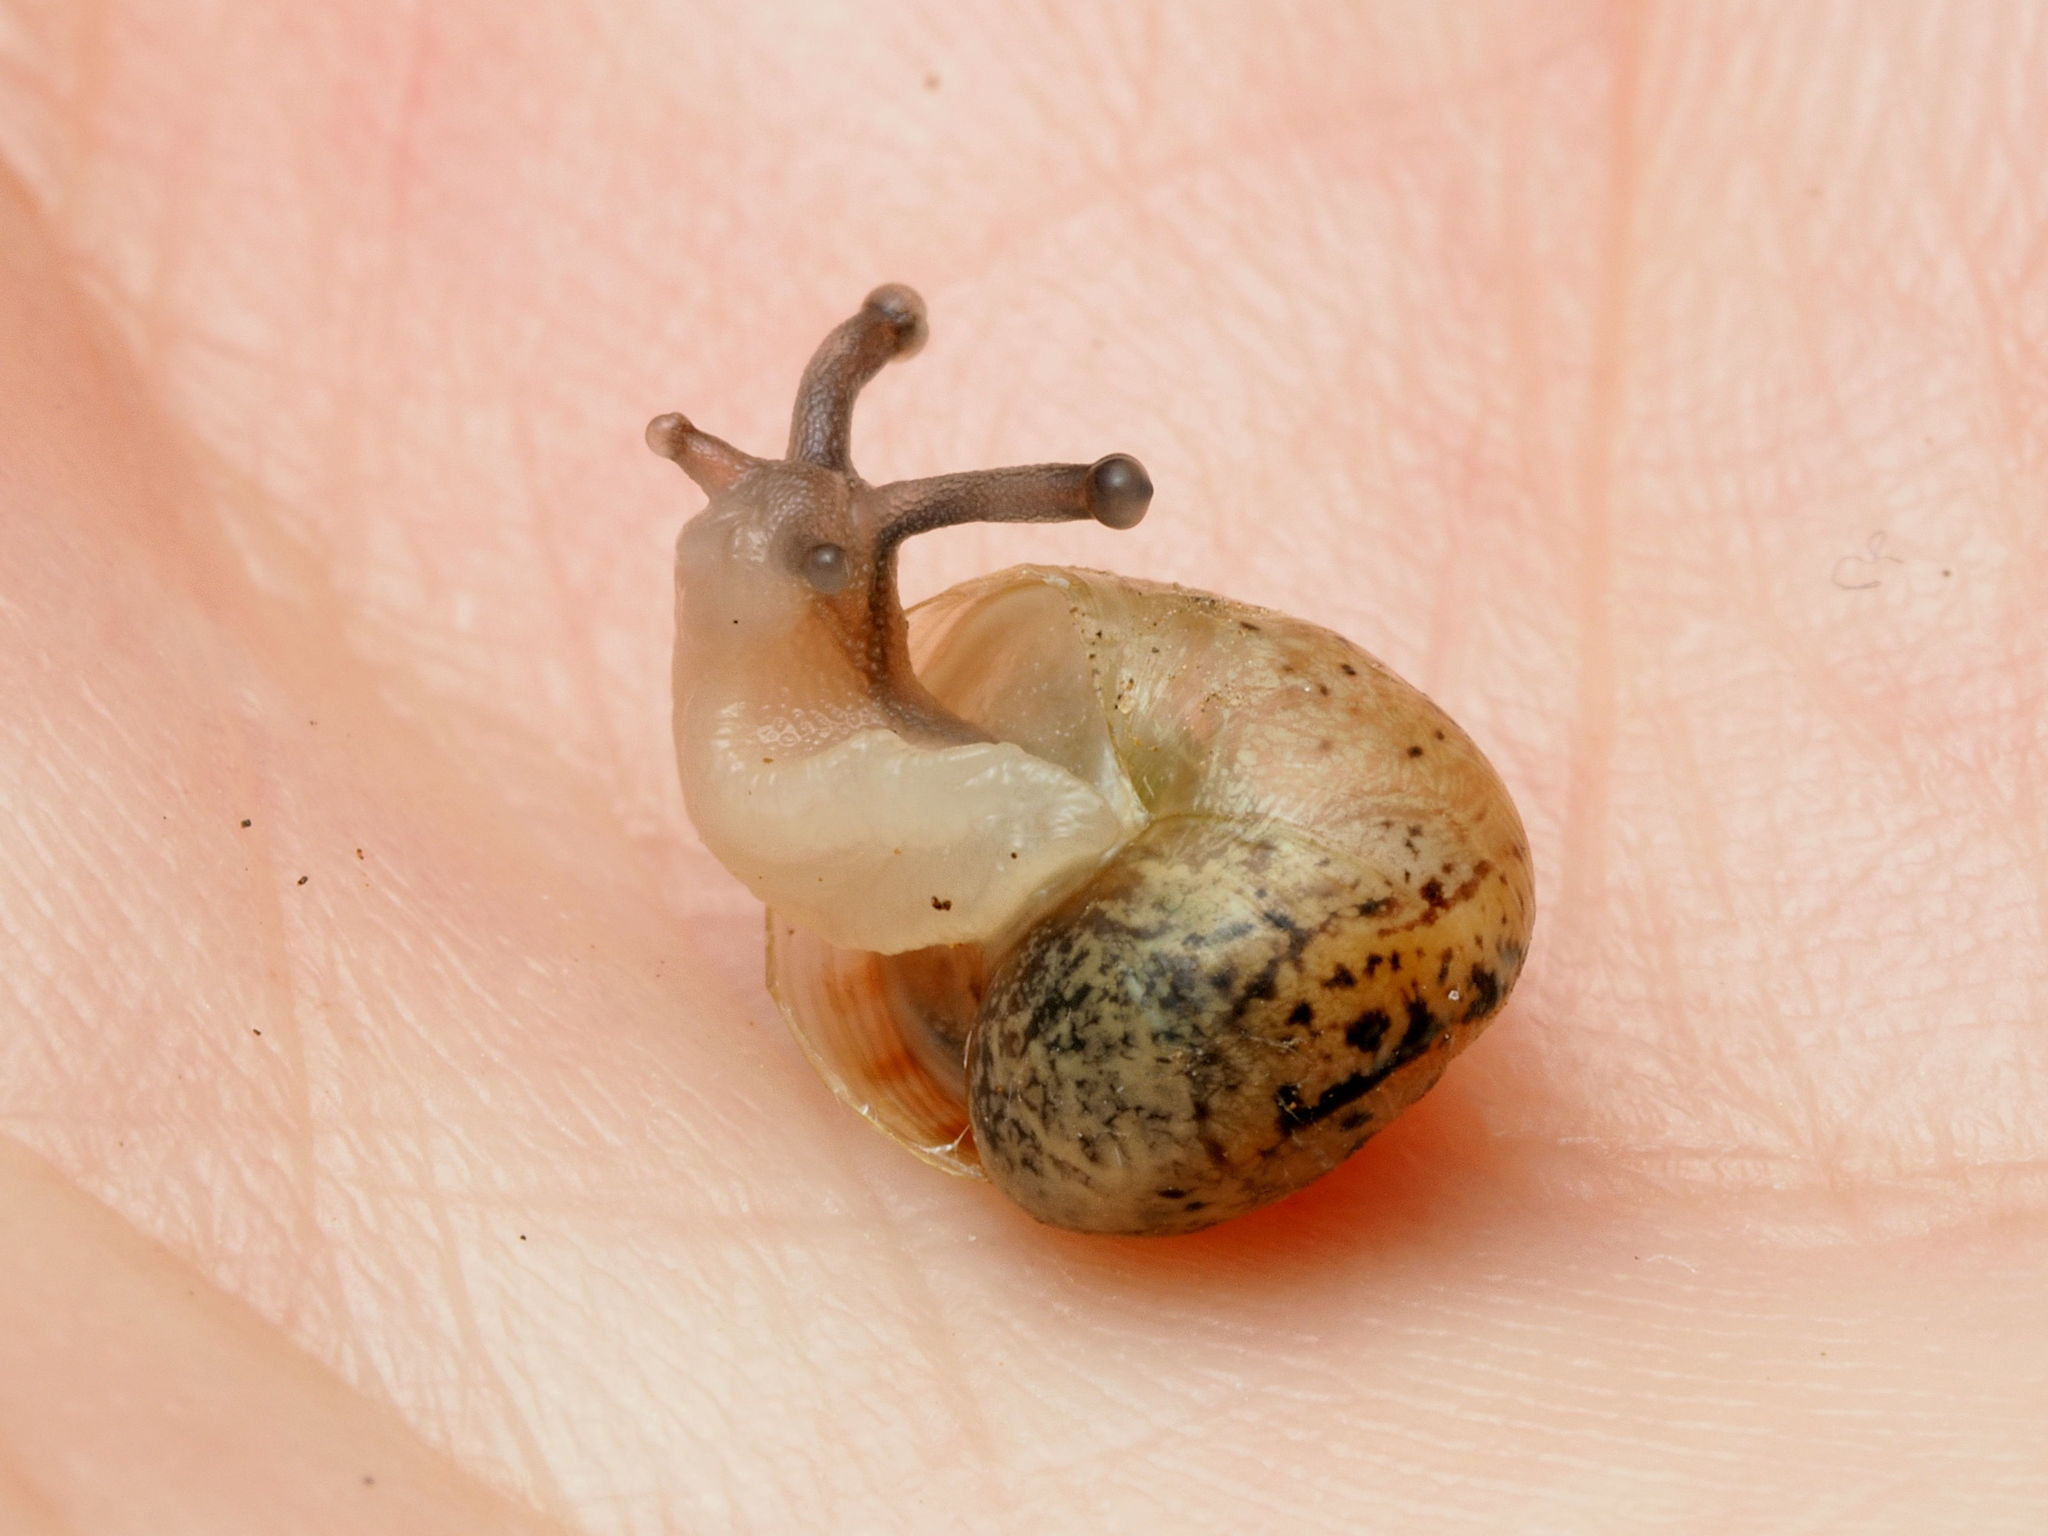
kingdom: Animalia
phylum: Mollusca
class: Gastropoda
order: Stylommatophora
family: Helicidae
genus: Cornu
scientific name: Cornu aspersum
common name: Brown garden snail
